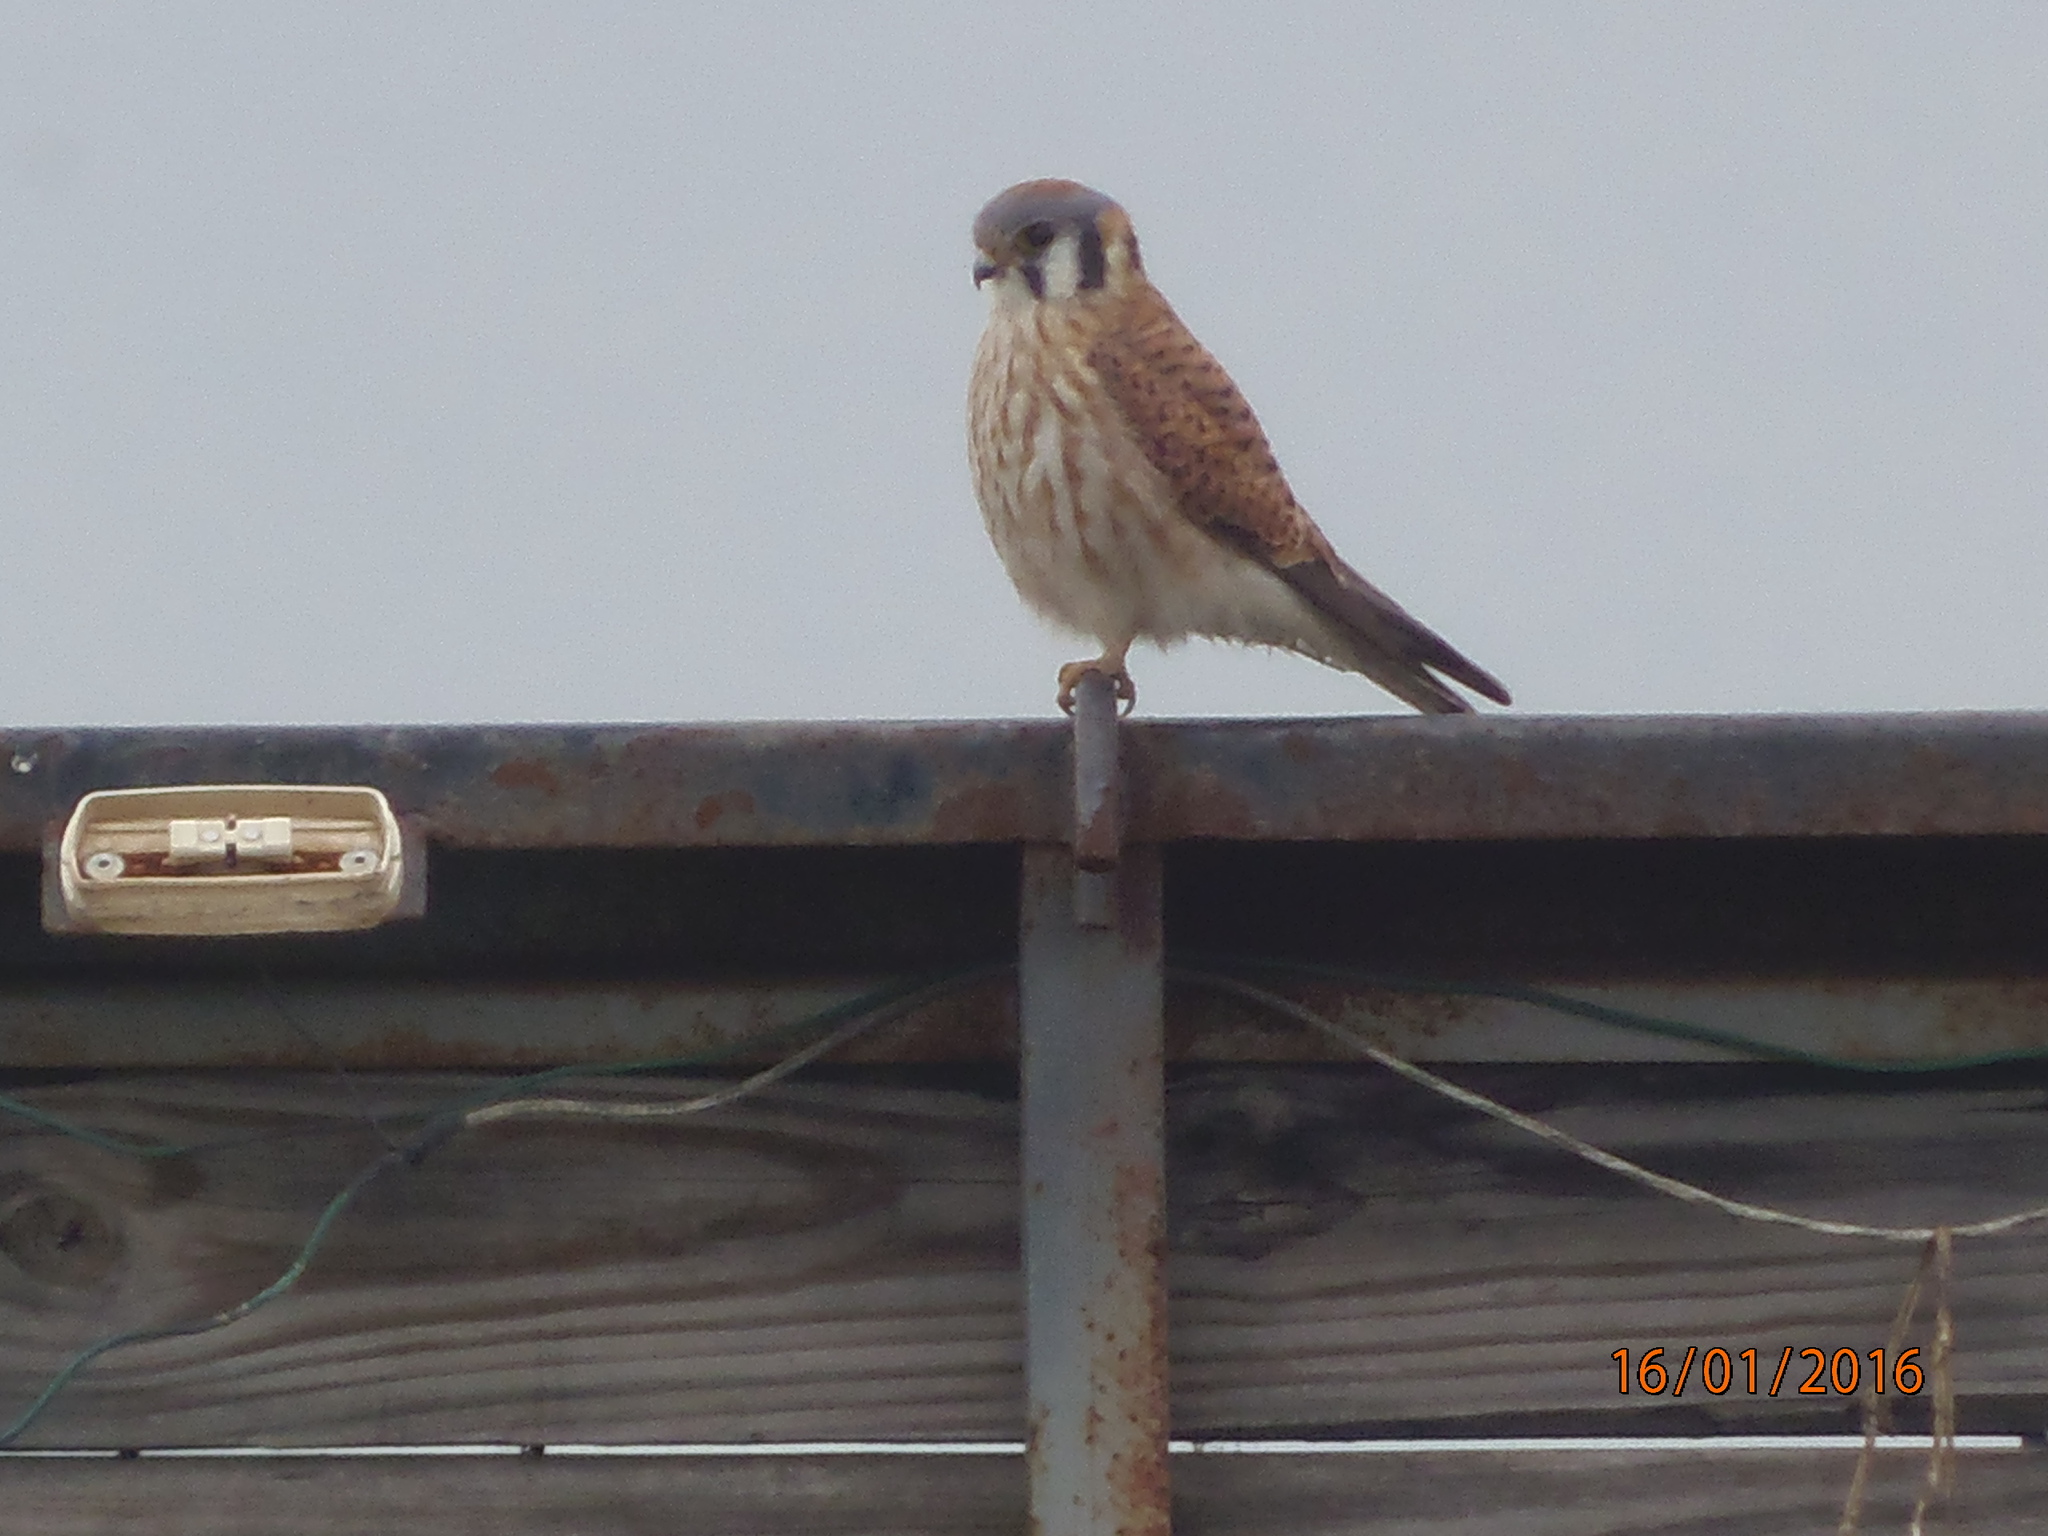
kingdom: Animalia
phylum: Chordata
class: Aves
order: Falconiformes
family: Falconidae
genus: Falco
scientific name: Falco sparverius
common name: American kestrel
